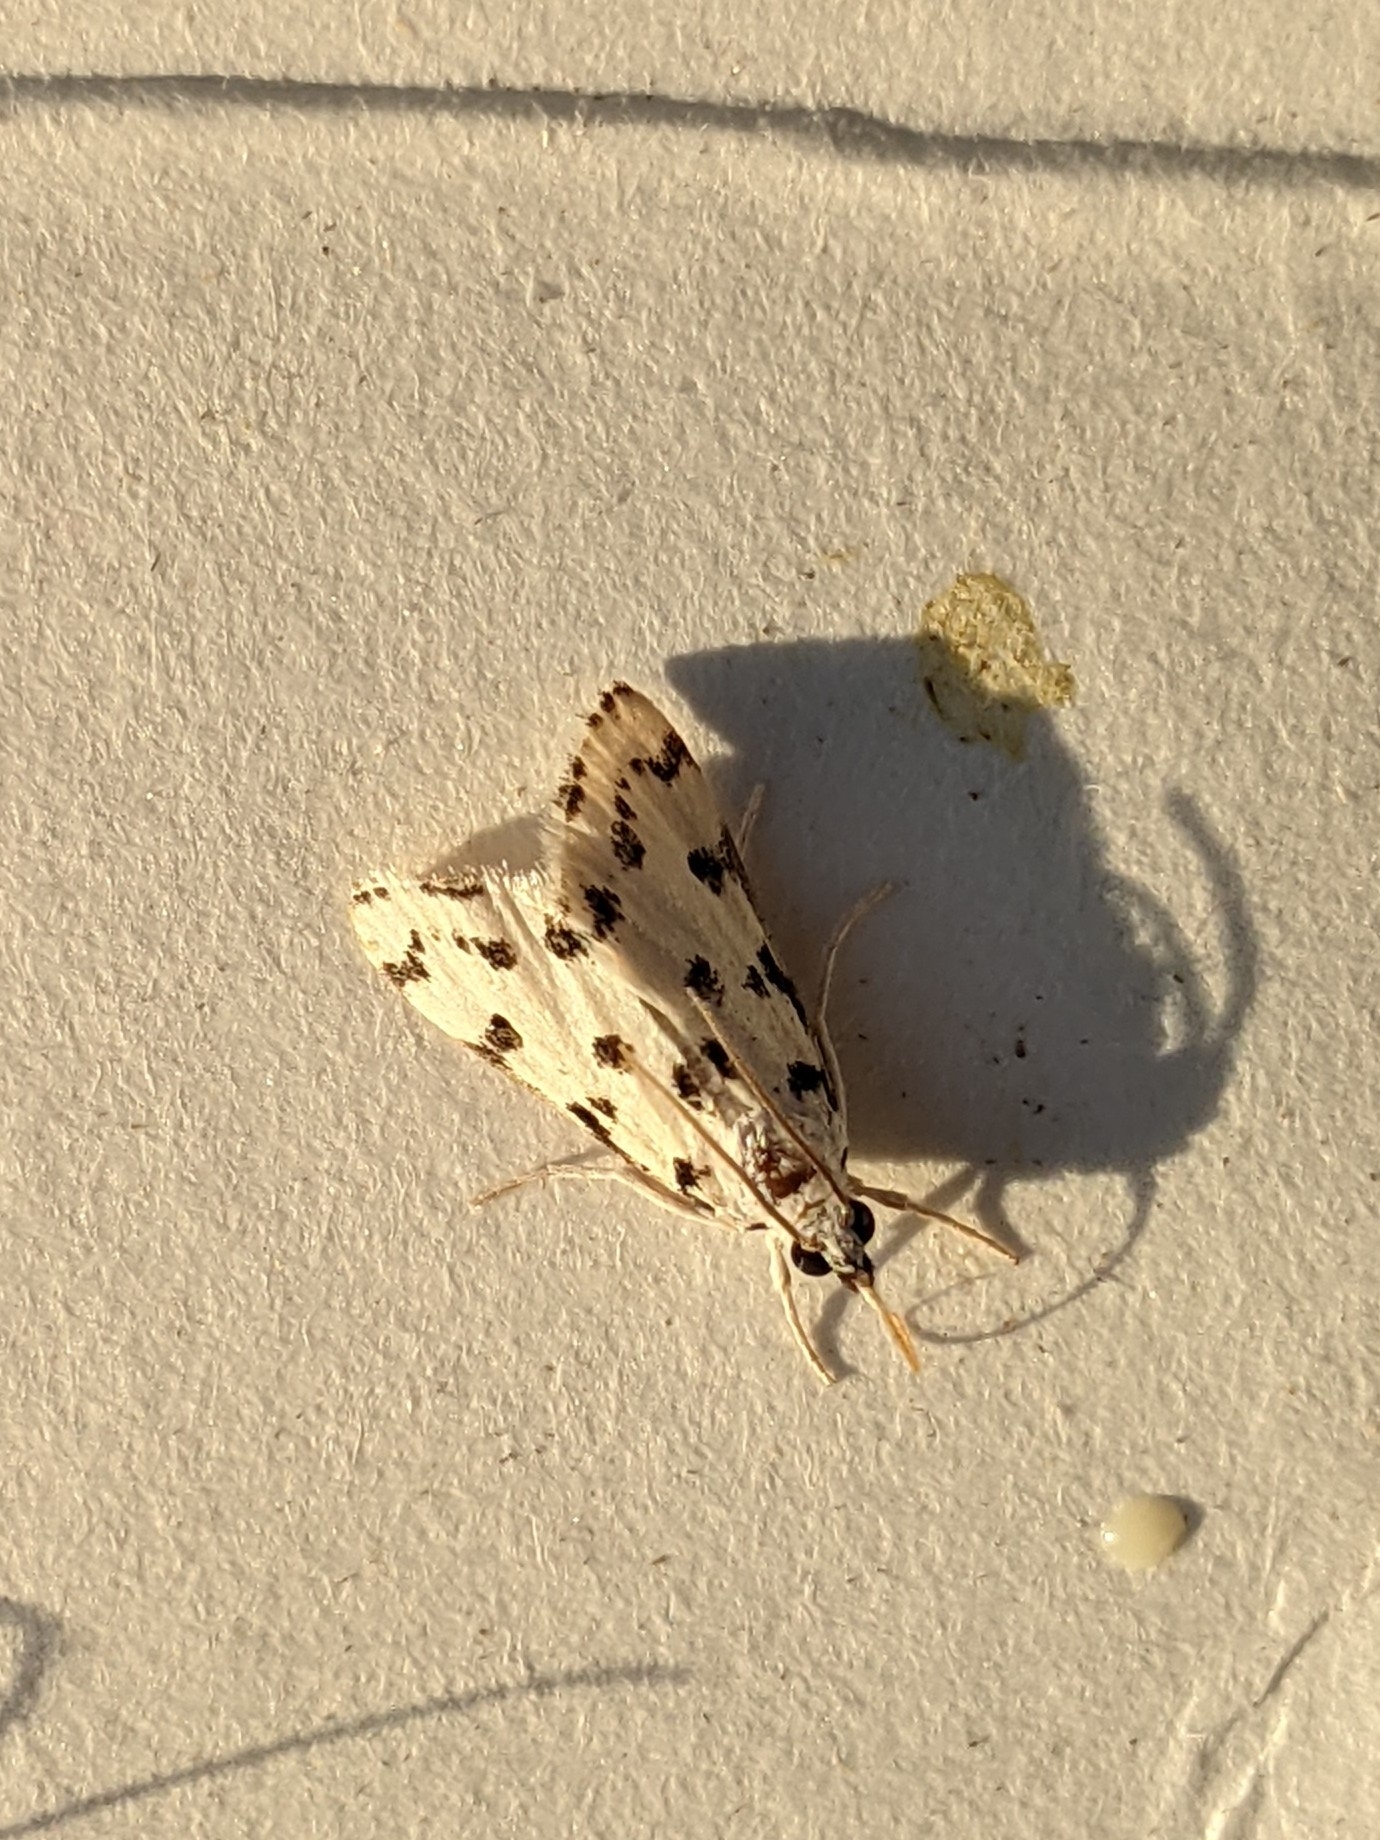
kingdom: Animalia
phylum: Arthropoda
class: Insecta
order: Lepidoptera
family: Crambidae
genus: Eustixia
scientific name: Eustixia pupula
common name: American cabbage pearl
